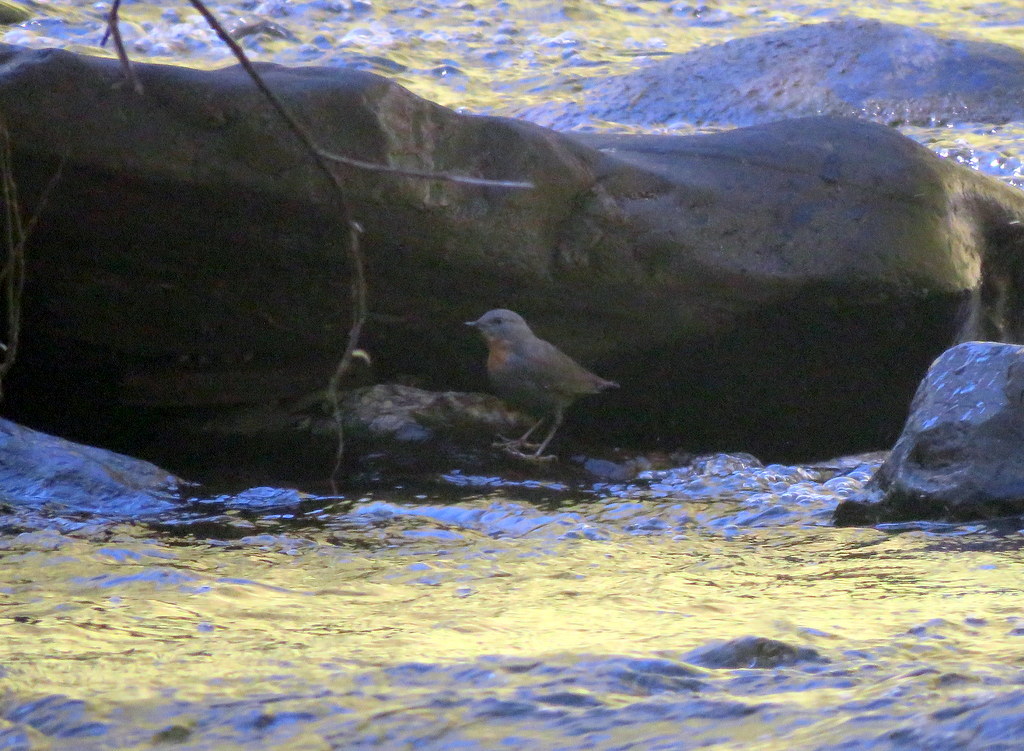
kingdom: Animalia
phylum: Chordata
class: Aves
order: Passeriformes
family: Cinclidae
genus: Cinclus
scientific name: Cinclus schulzii
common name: Rufous-throated dipper
